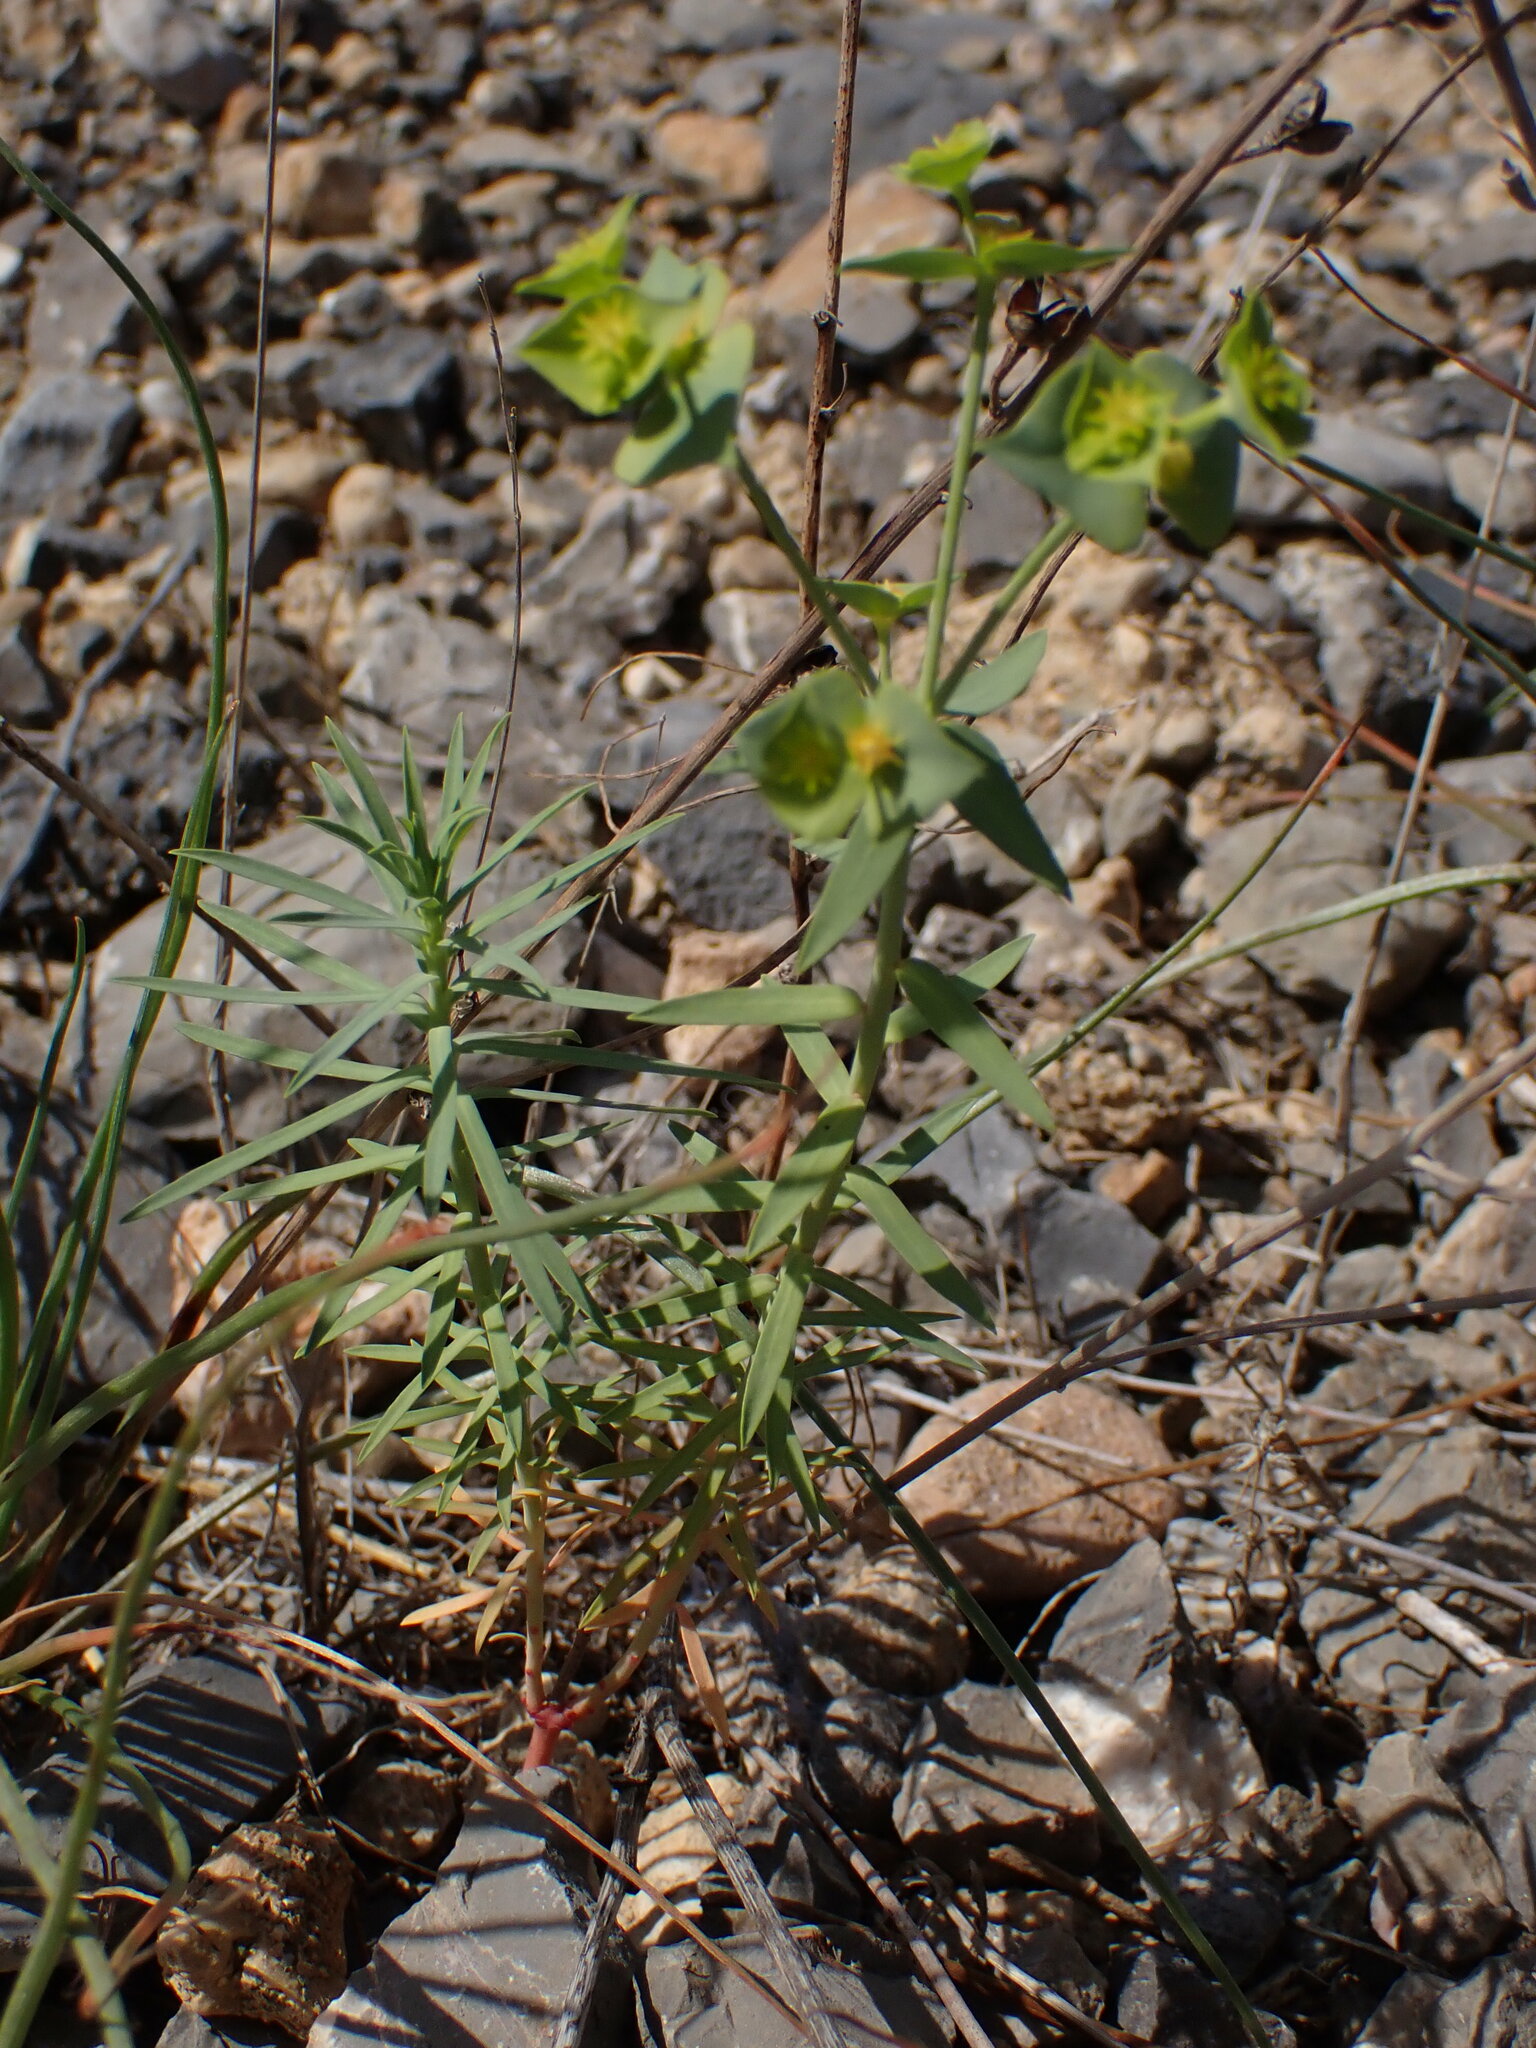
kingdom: Plantae
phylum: Tracheophyta
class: Magnoliopsida
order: Malpighiales
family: Euphorbiaceae
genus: Euphorbia
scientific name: Euphorbia segetalis
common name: Corn spurge
